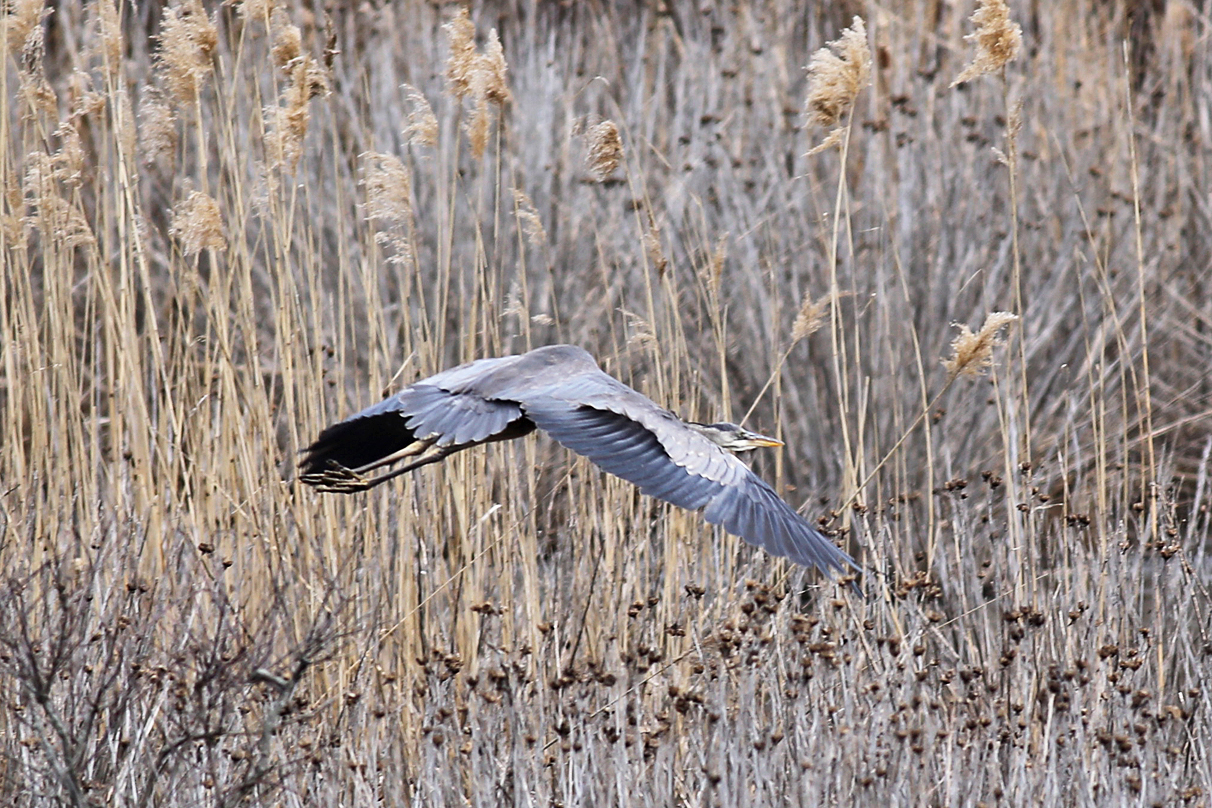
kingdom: Animalia
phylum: Chordata
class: Aves
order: Pelecaniformes
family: Ardeidae
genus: Ardea
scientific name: Ardea herodias
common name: Great blue heron
